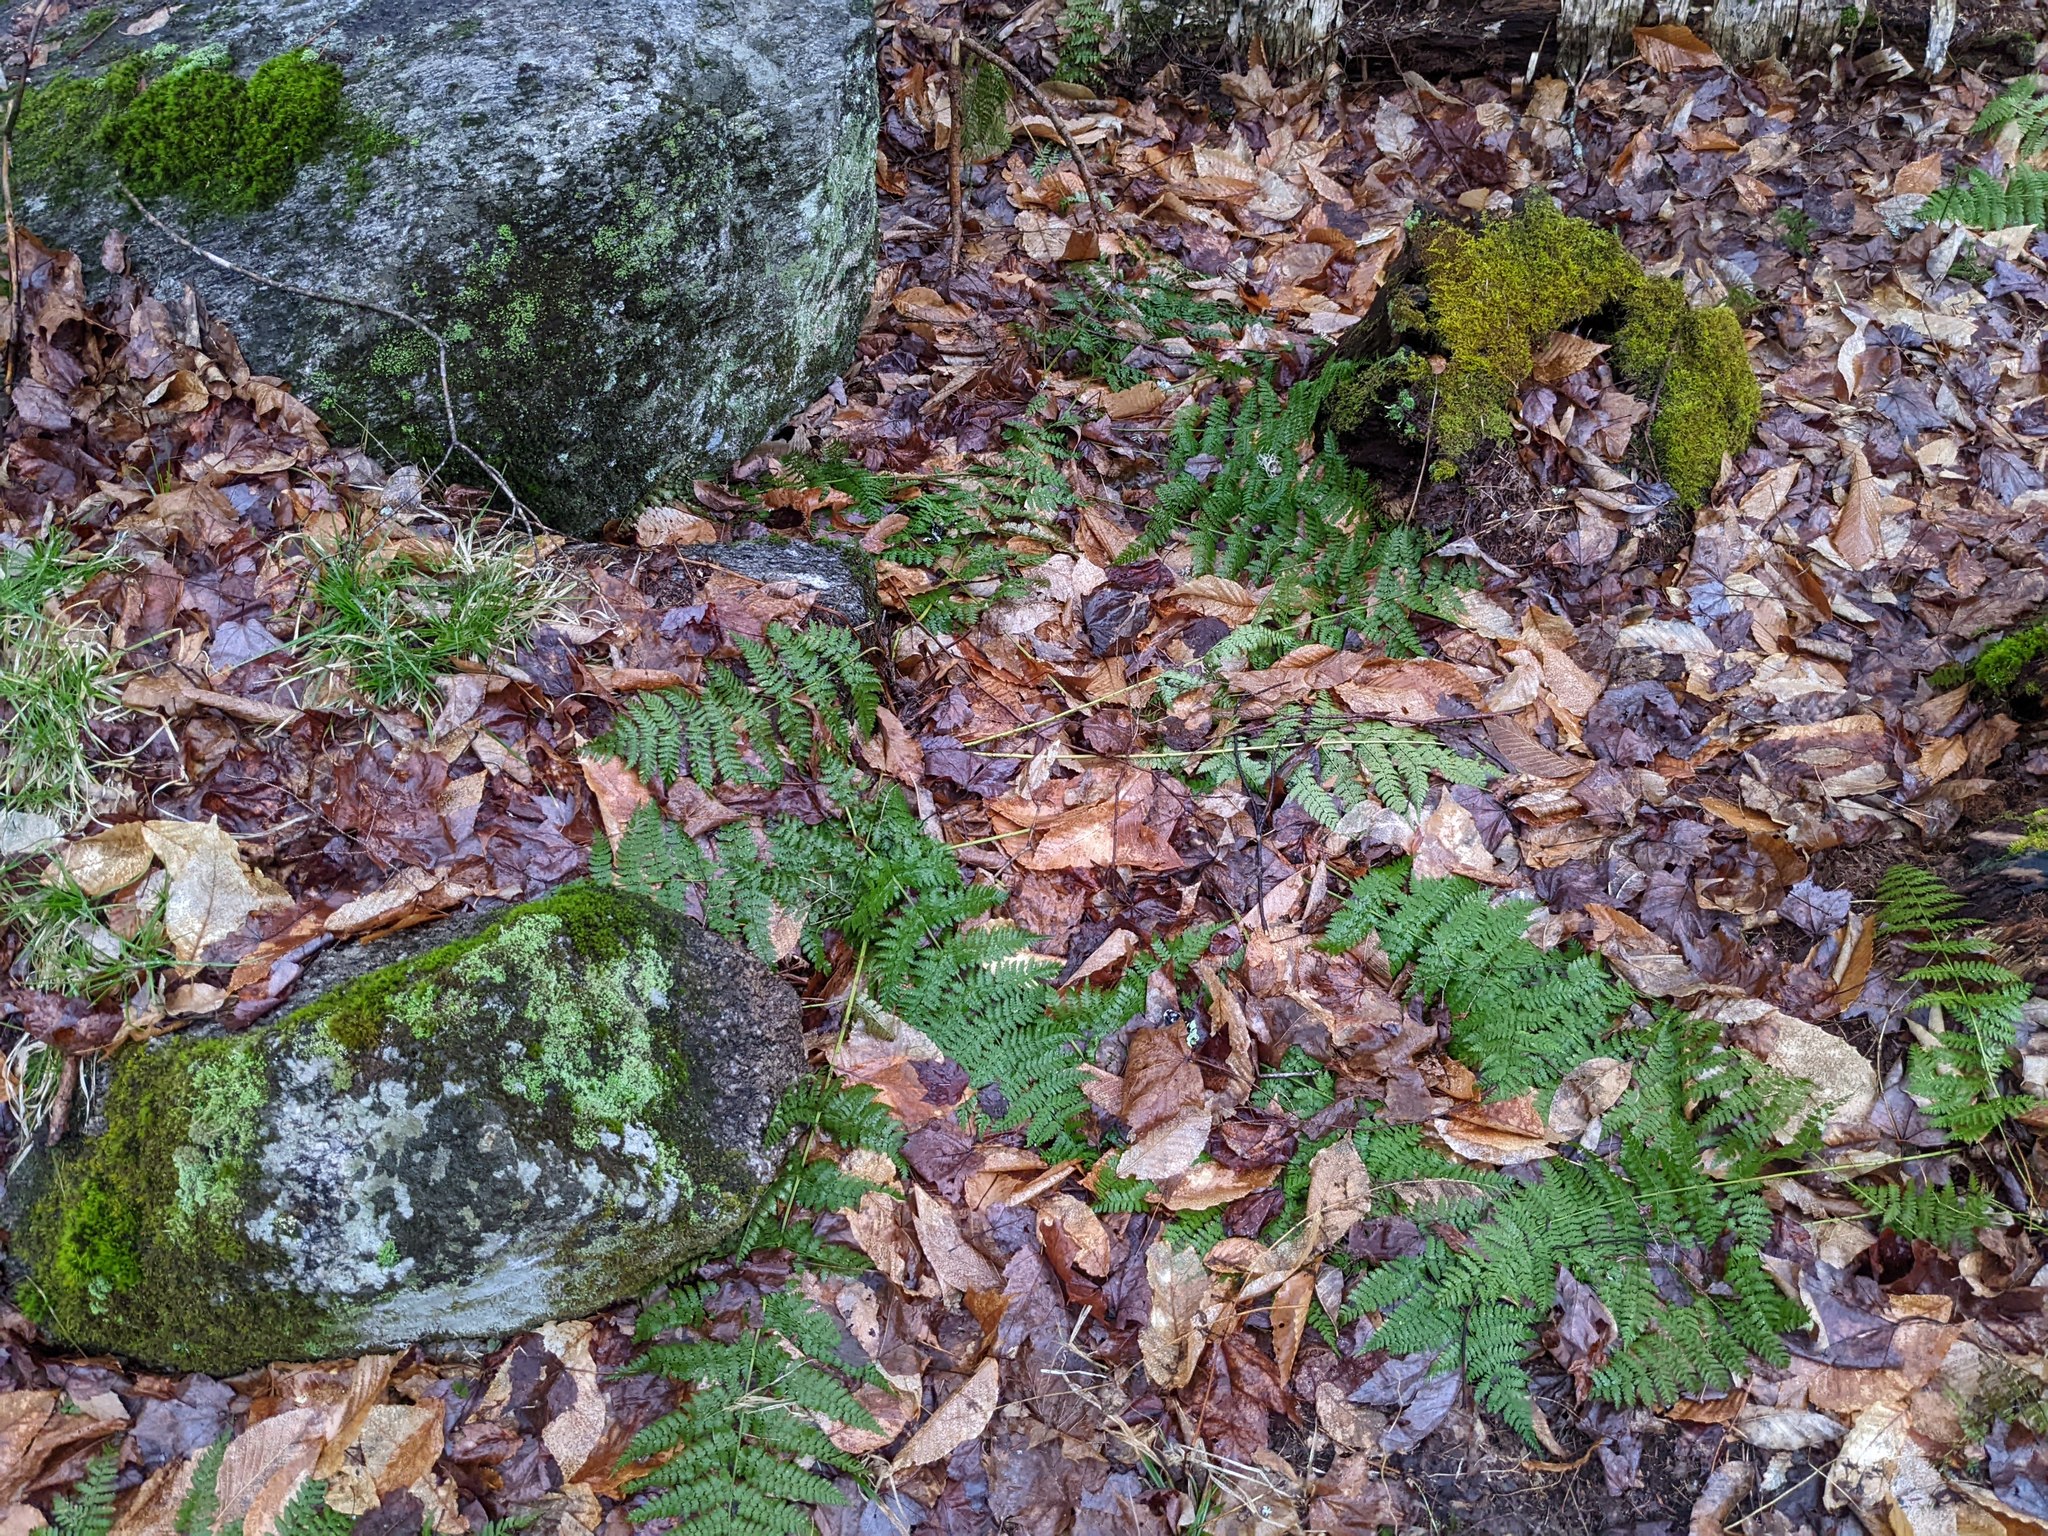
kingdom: Plantae
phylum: Tracheophyta
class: Polypodiopsida
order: Polypodiales
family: Dryopteridaceae
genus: Dryopteris
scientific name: Dryopteris intermedia
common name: Evergreen wood fern
